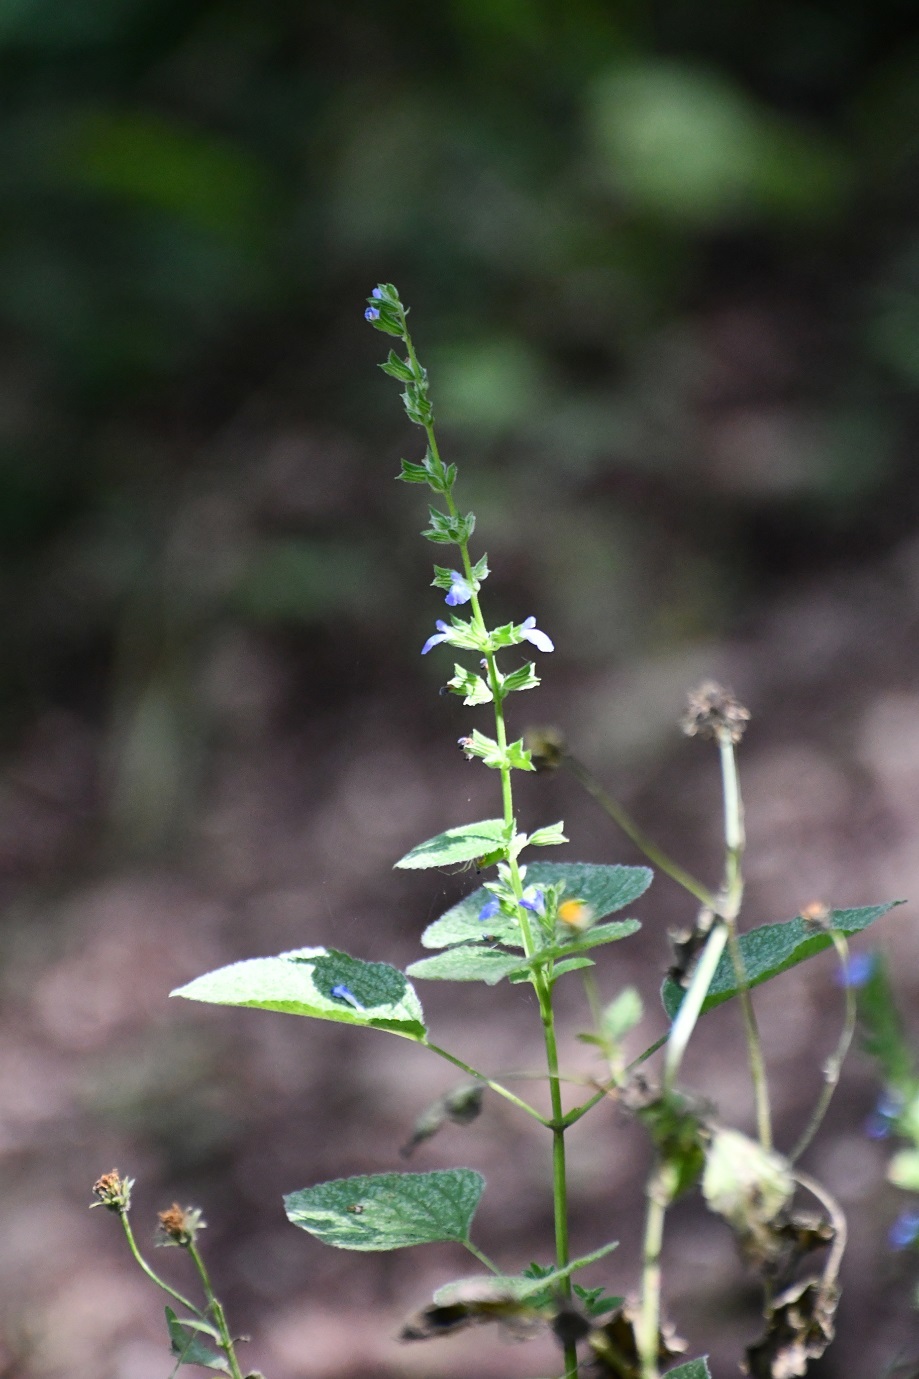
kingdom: Plantae
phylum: Tracheophyta
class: Magnoliopsida
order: Lamiales
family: Lamiaceae
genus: Salvia
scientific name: Salvia tiliifolia
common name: Lindenleaf sage
